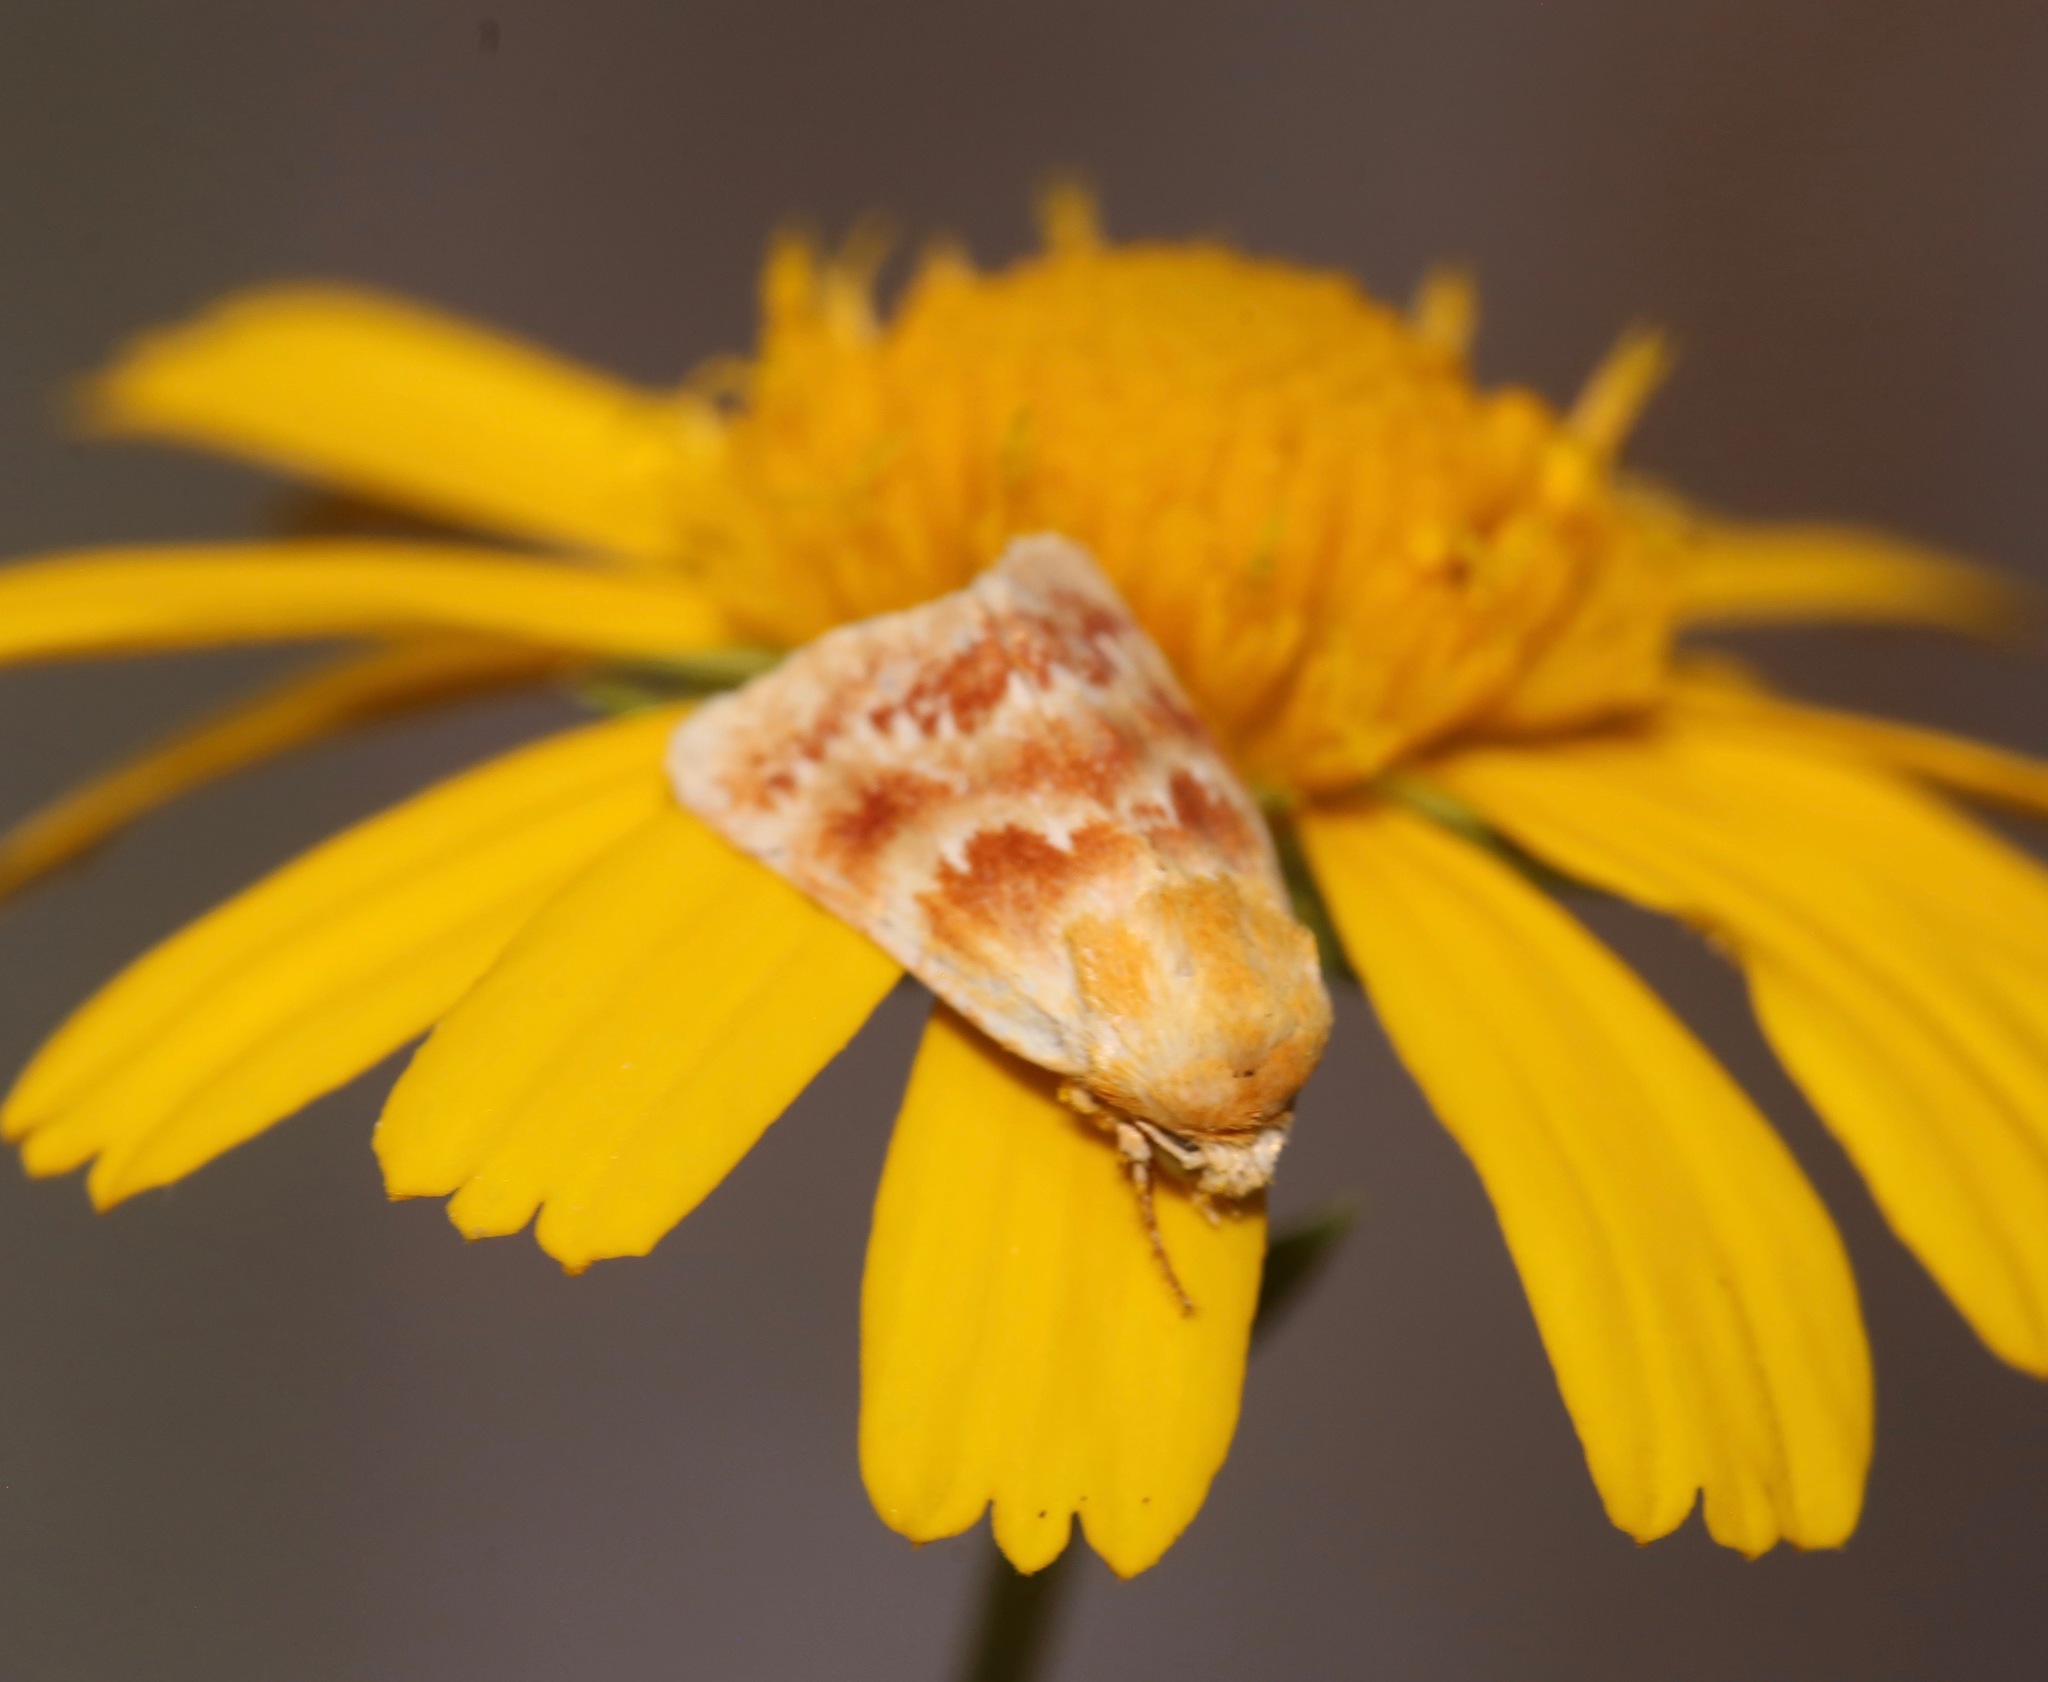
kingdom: Animalia
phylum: Arthropoda
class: Insecta
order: Lepidoptera
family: Noctuidae
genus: Schinia
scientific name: Schinia fulleri
